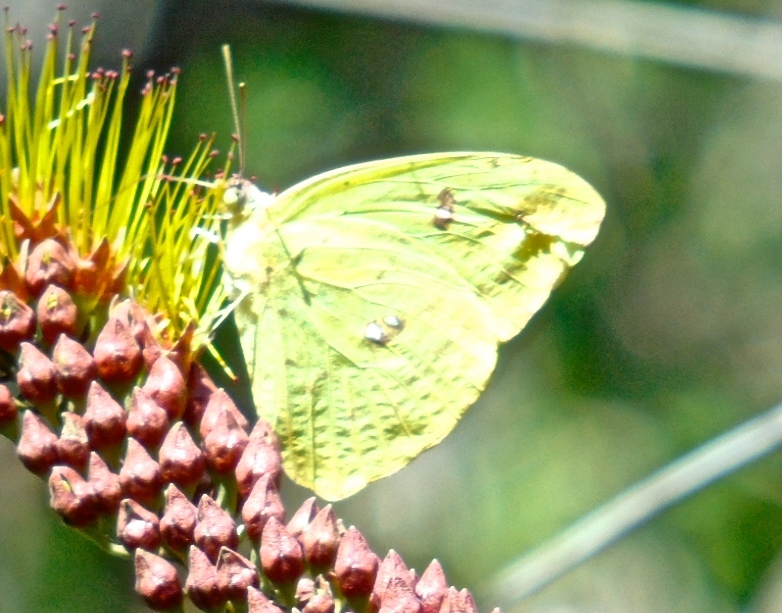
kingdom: Animalia
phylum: Arthropoda
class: Insecta
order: Lepidoptera
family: Pieridae
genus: Phoebis
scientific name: Phoebis marcellina
